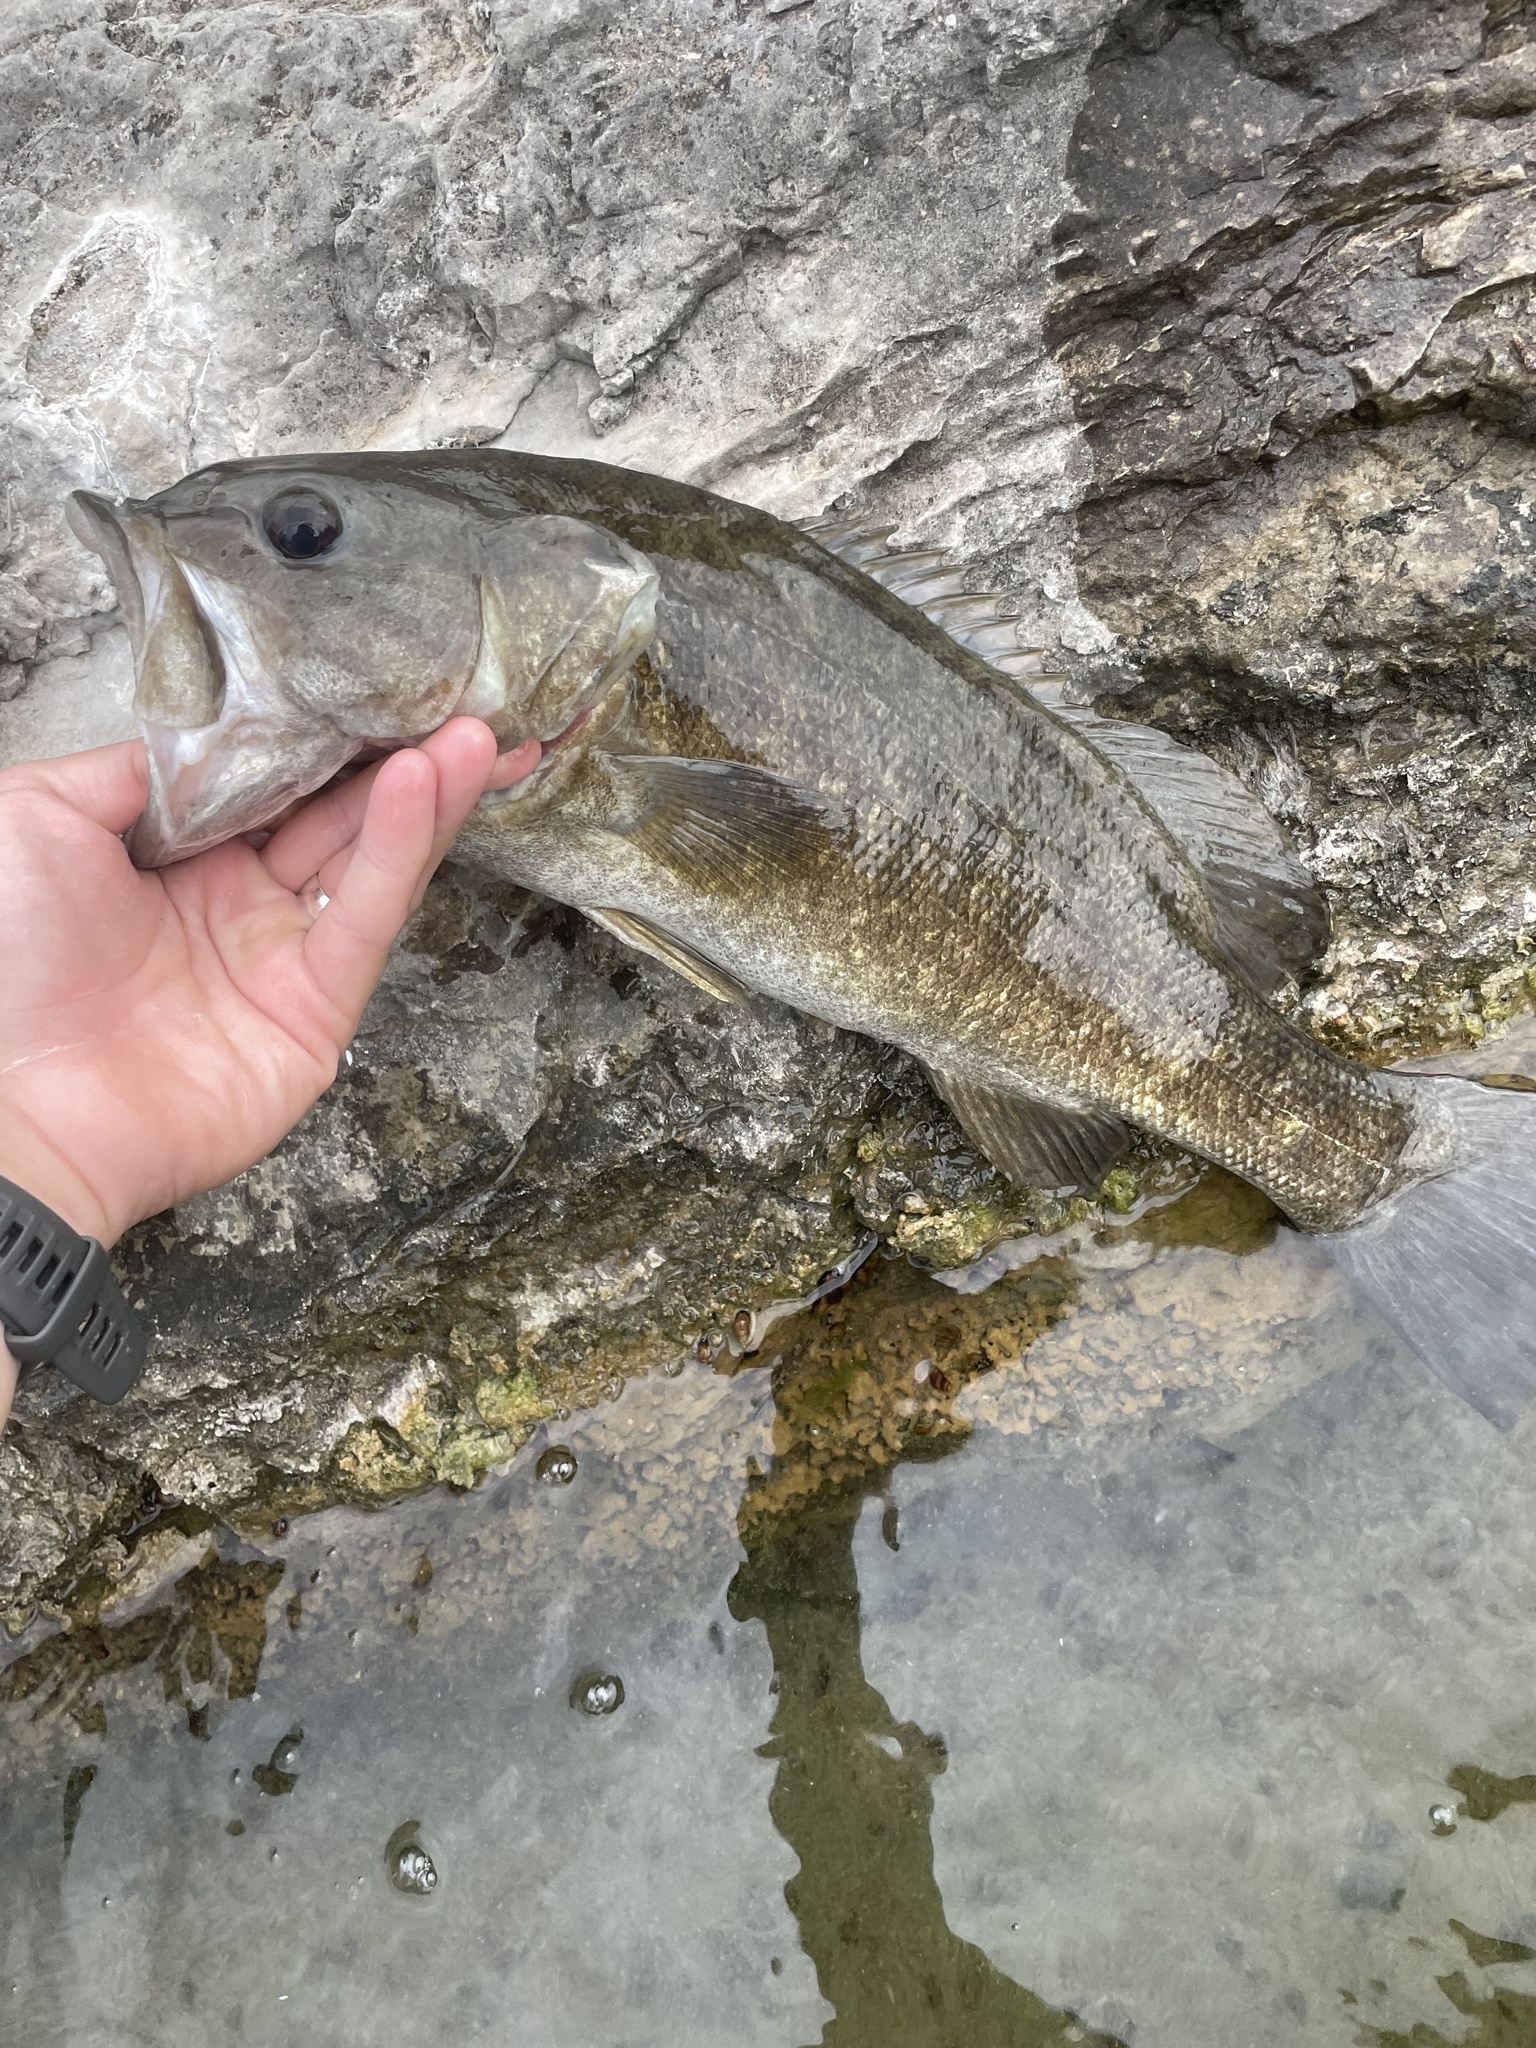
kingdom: Animalia
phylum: Chordata
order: Perciformes
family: Centrarchidae
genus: Micropterus
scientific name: Micropterus dolomieu
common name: Smallmouth bass
